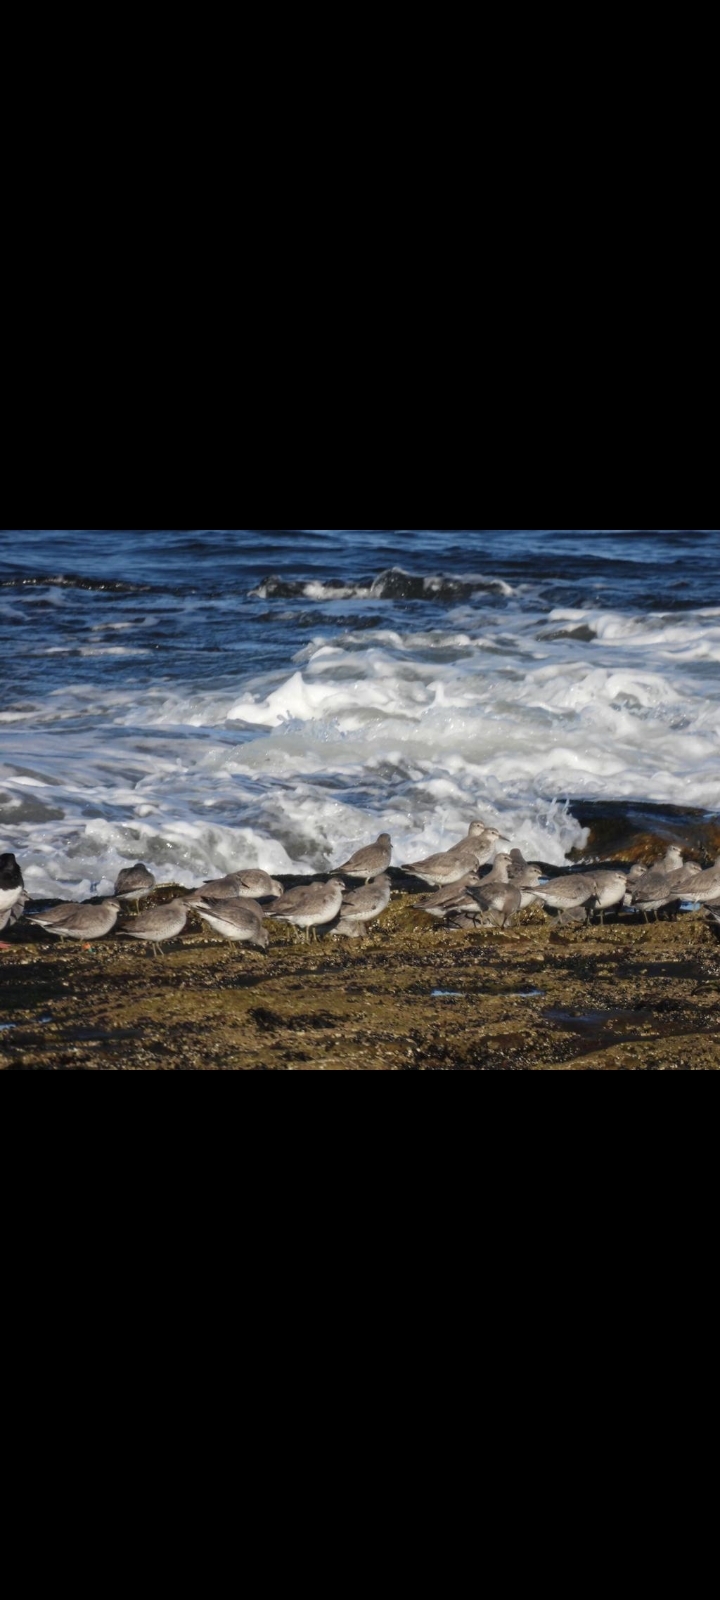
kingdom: Animalia
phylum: Chordata
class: Aves
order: Charadriiformes
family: Scolopacidae
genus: Calidris
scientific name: Calidris canutus
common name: Red knot
